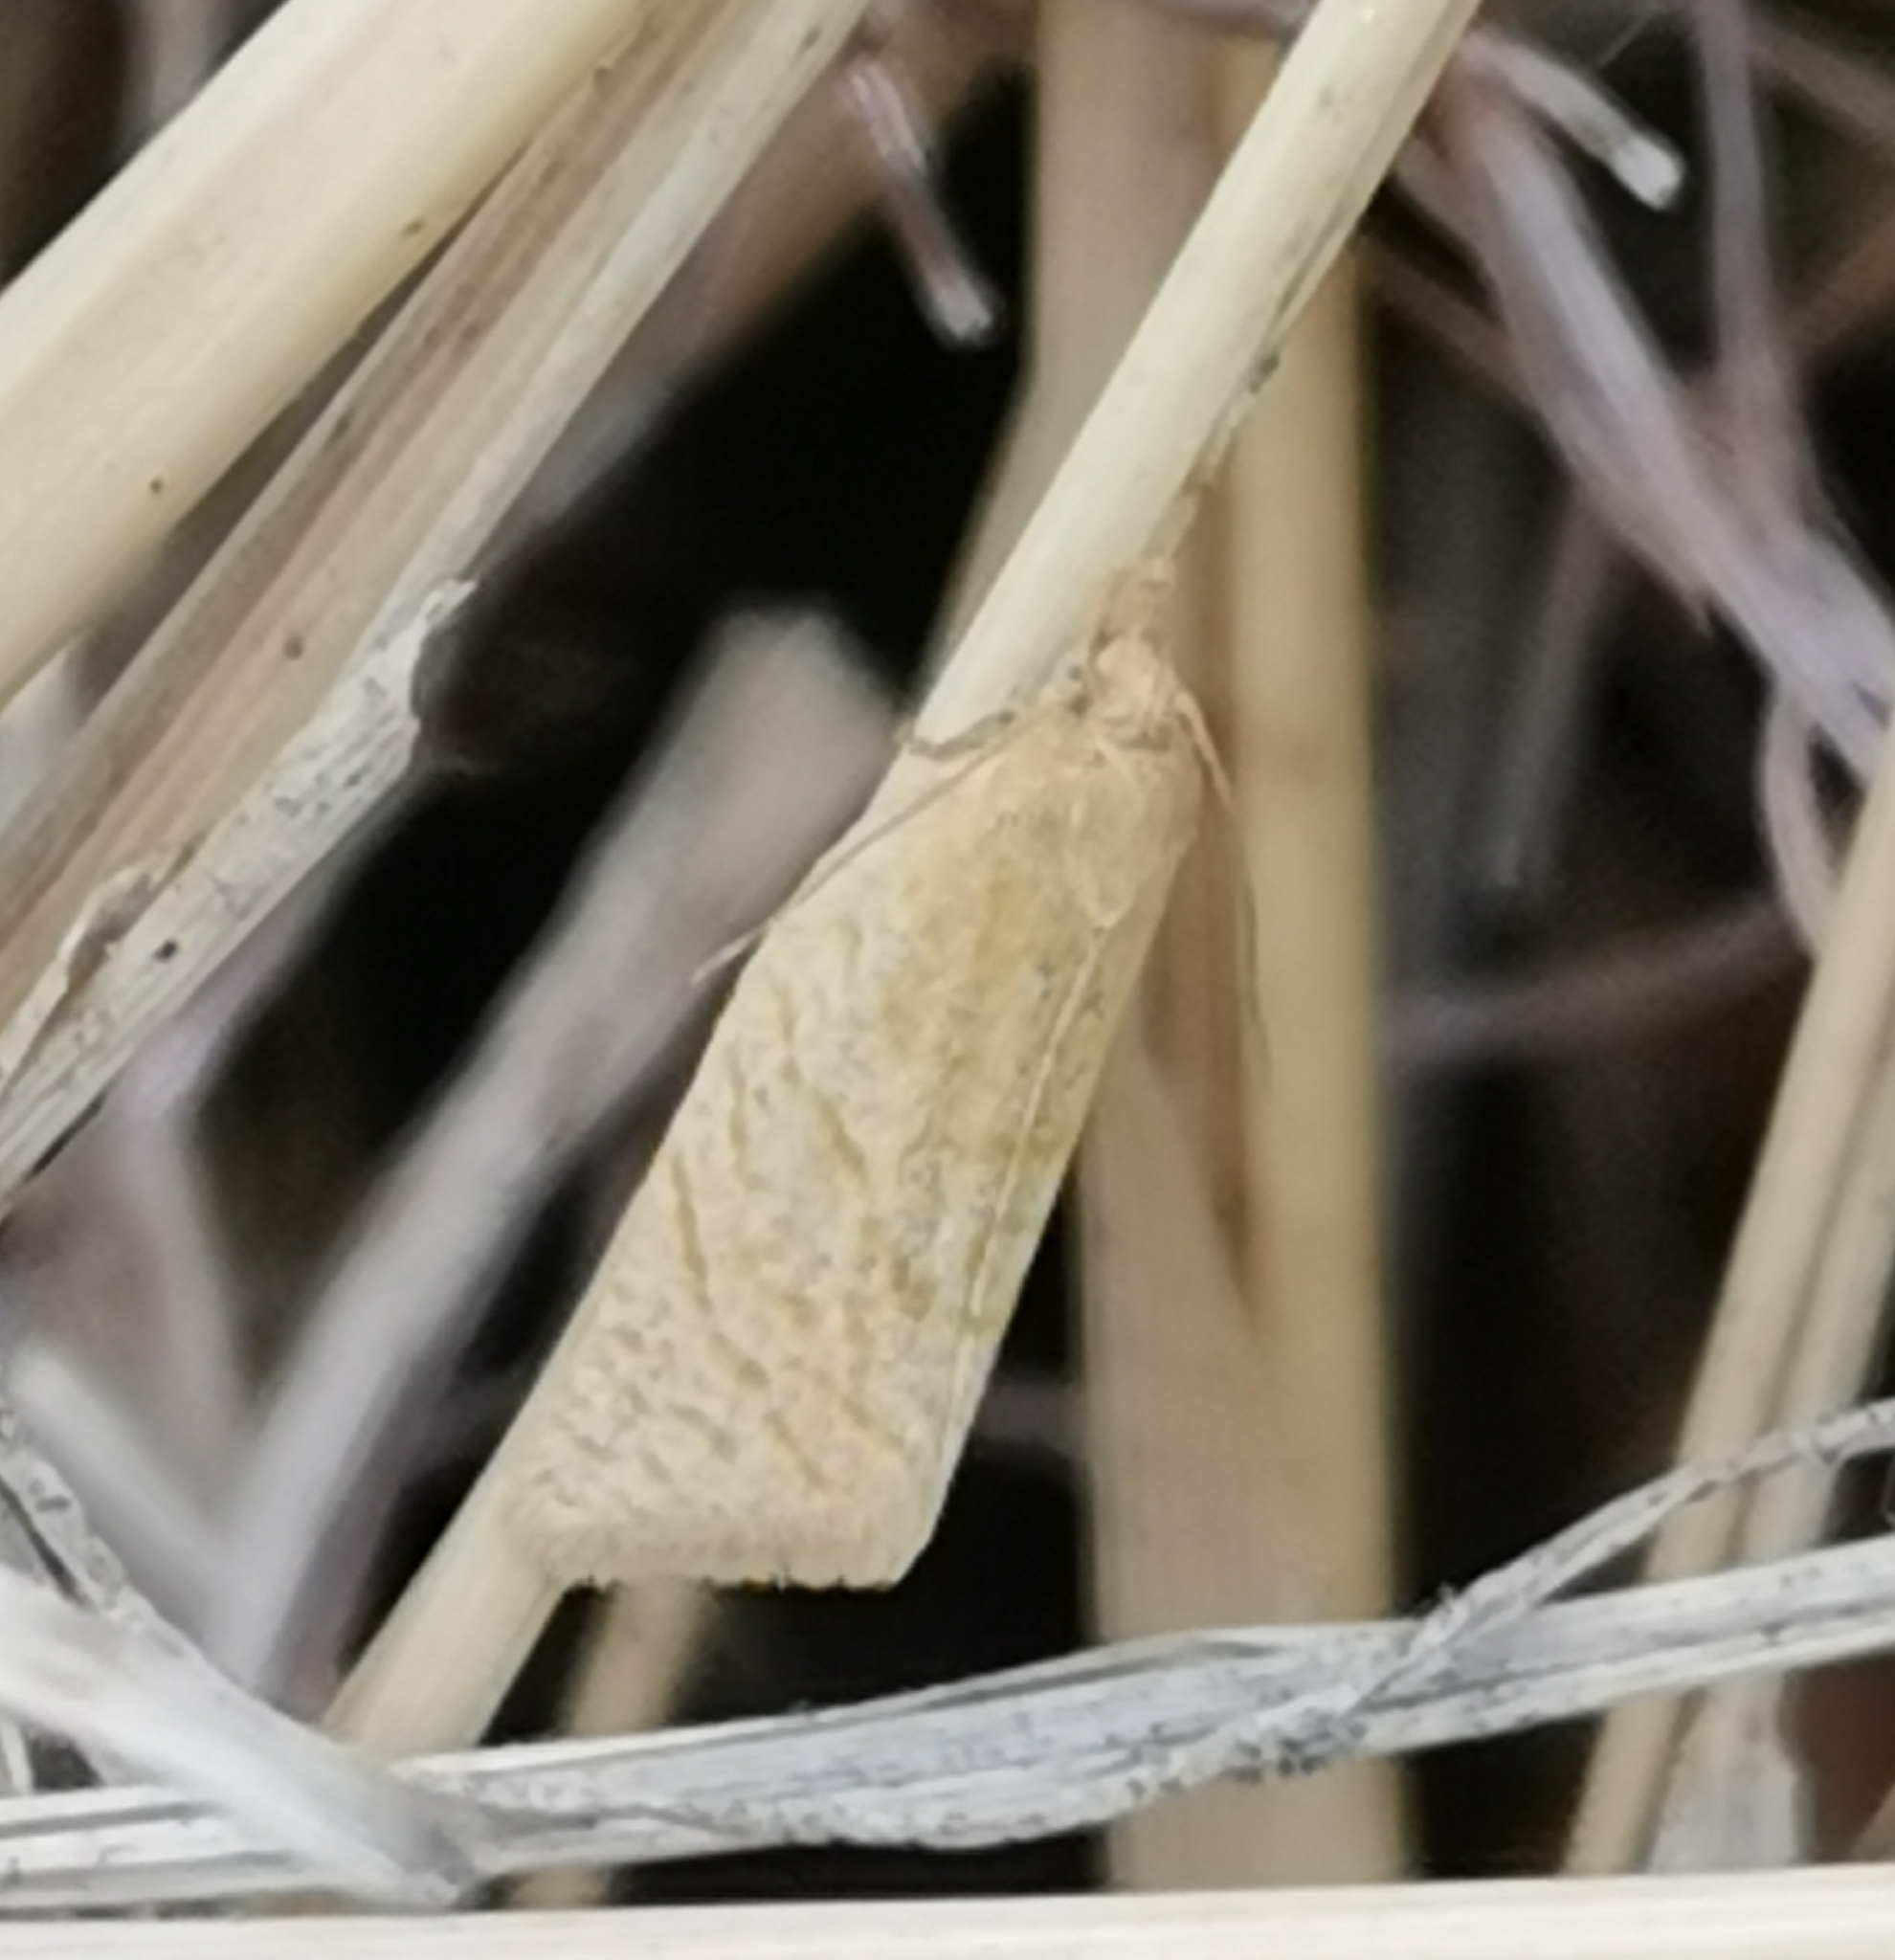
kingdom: Animalia
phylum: Arthropoda
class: Insecta
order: Lepidoptera
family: Tortricidae
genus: Clepsis
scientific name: Clepsis senecionana
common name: Obscure tortrix
